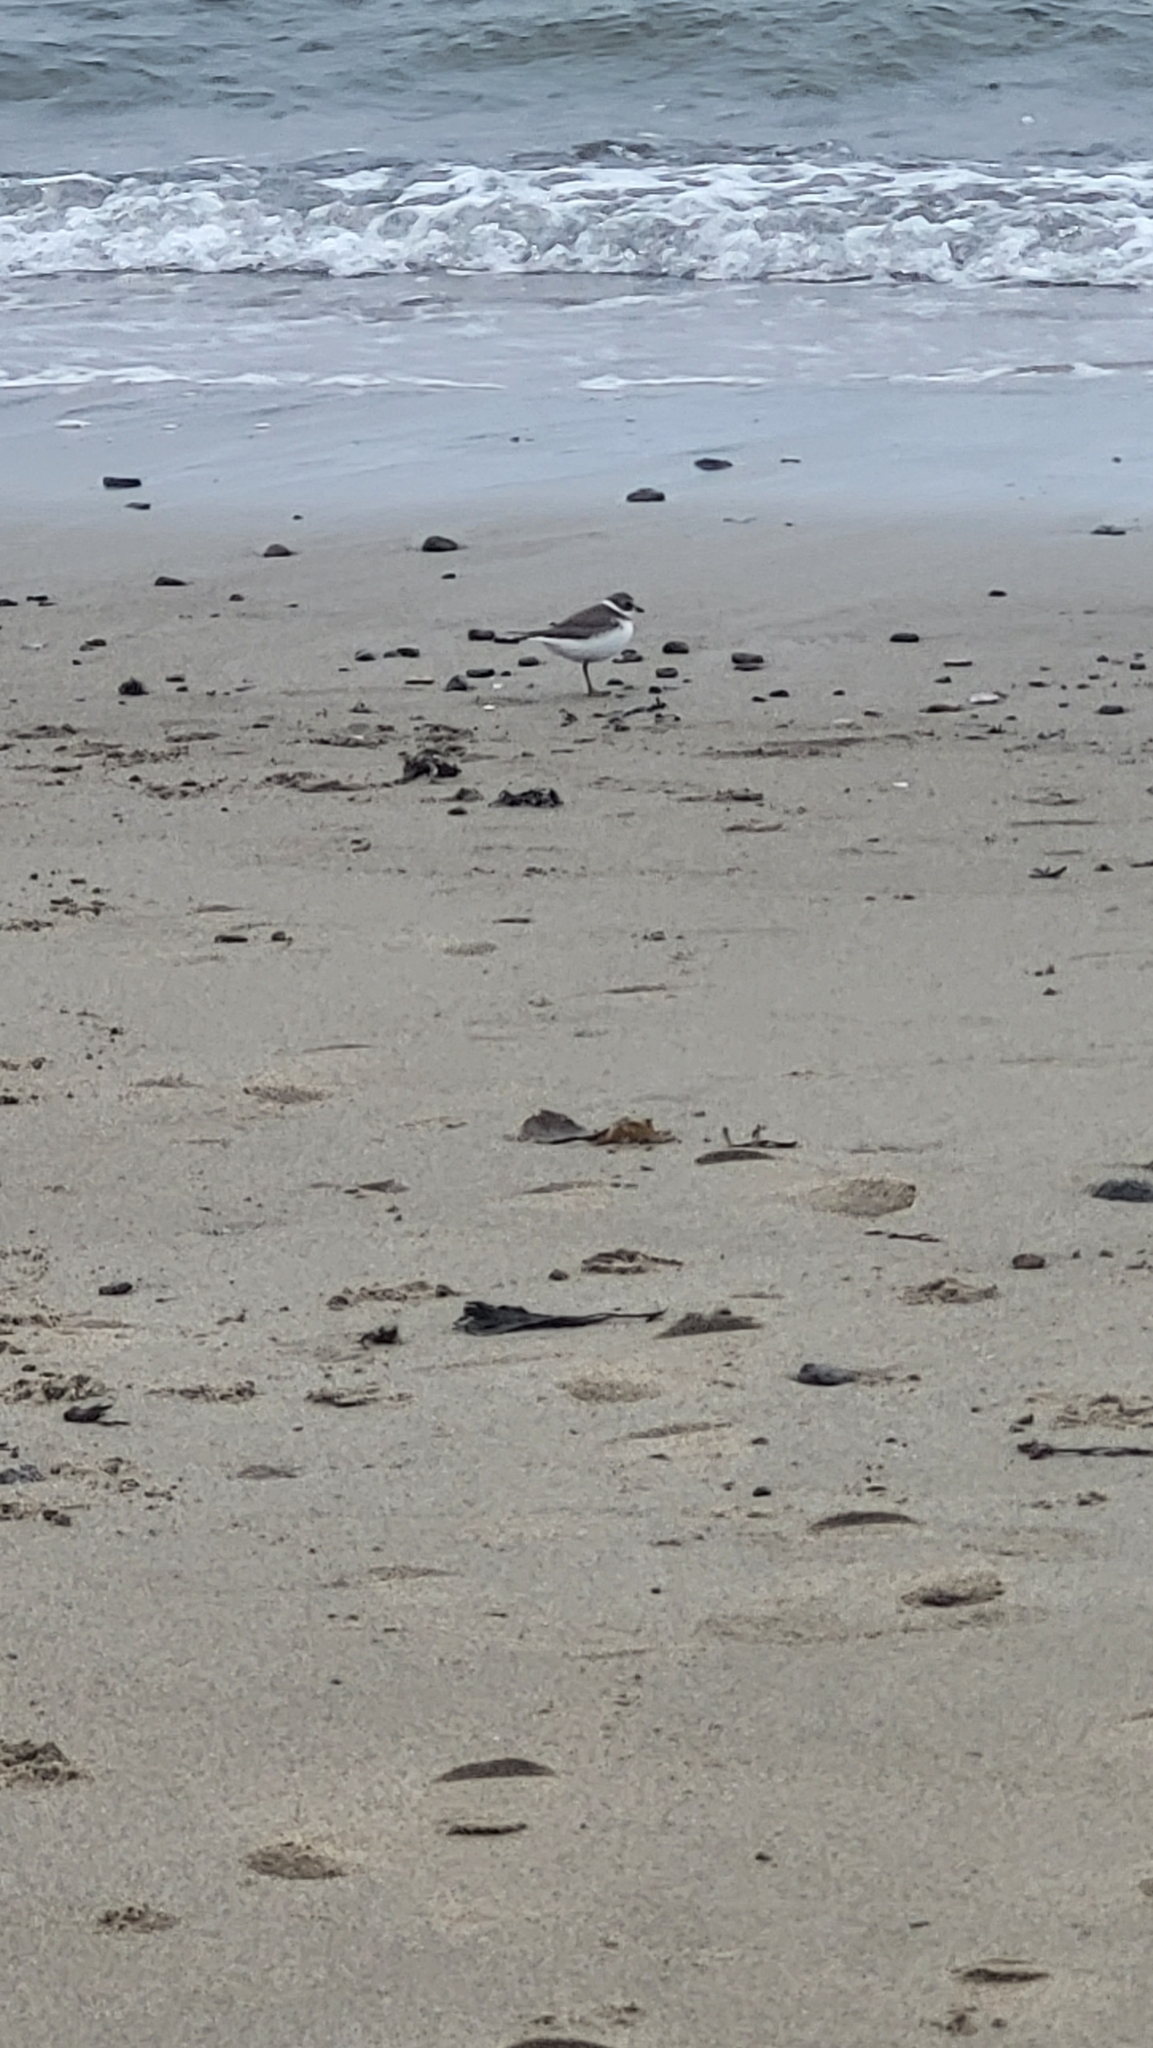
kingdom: Animalia
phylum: Chordata
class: Aves
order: Charadriiformes
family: Charadriidae
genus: Charadrius
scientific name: Charadrius semipalmatus
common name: Semipalmated plover
